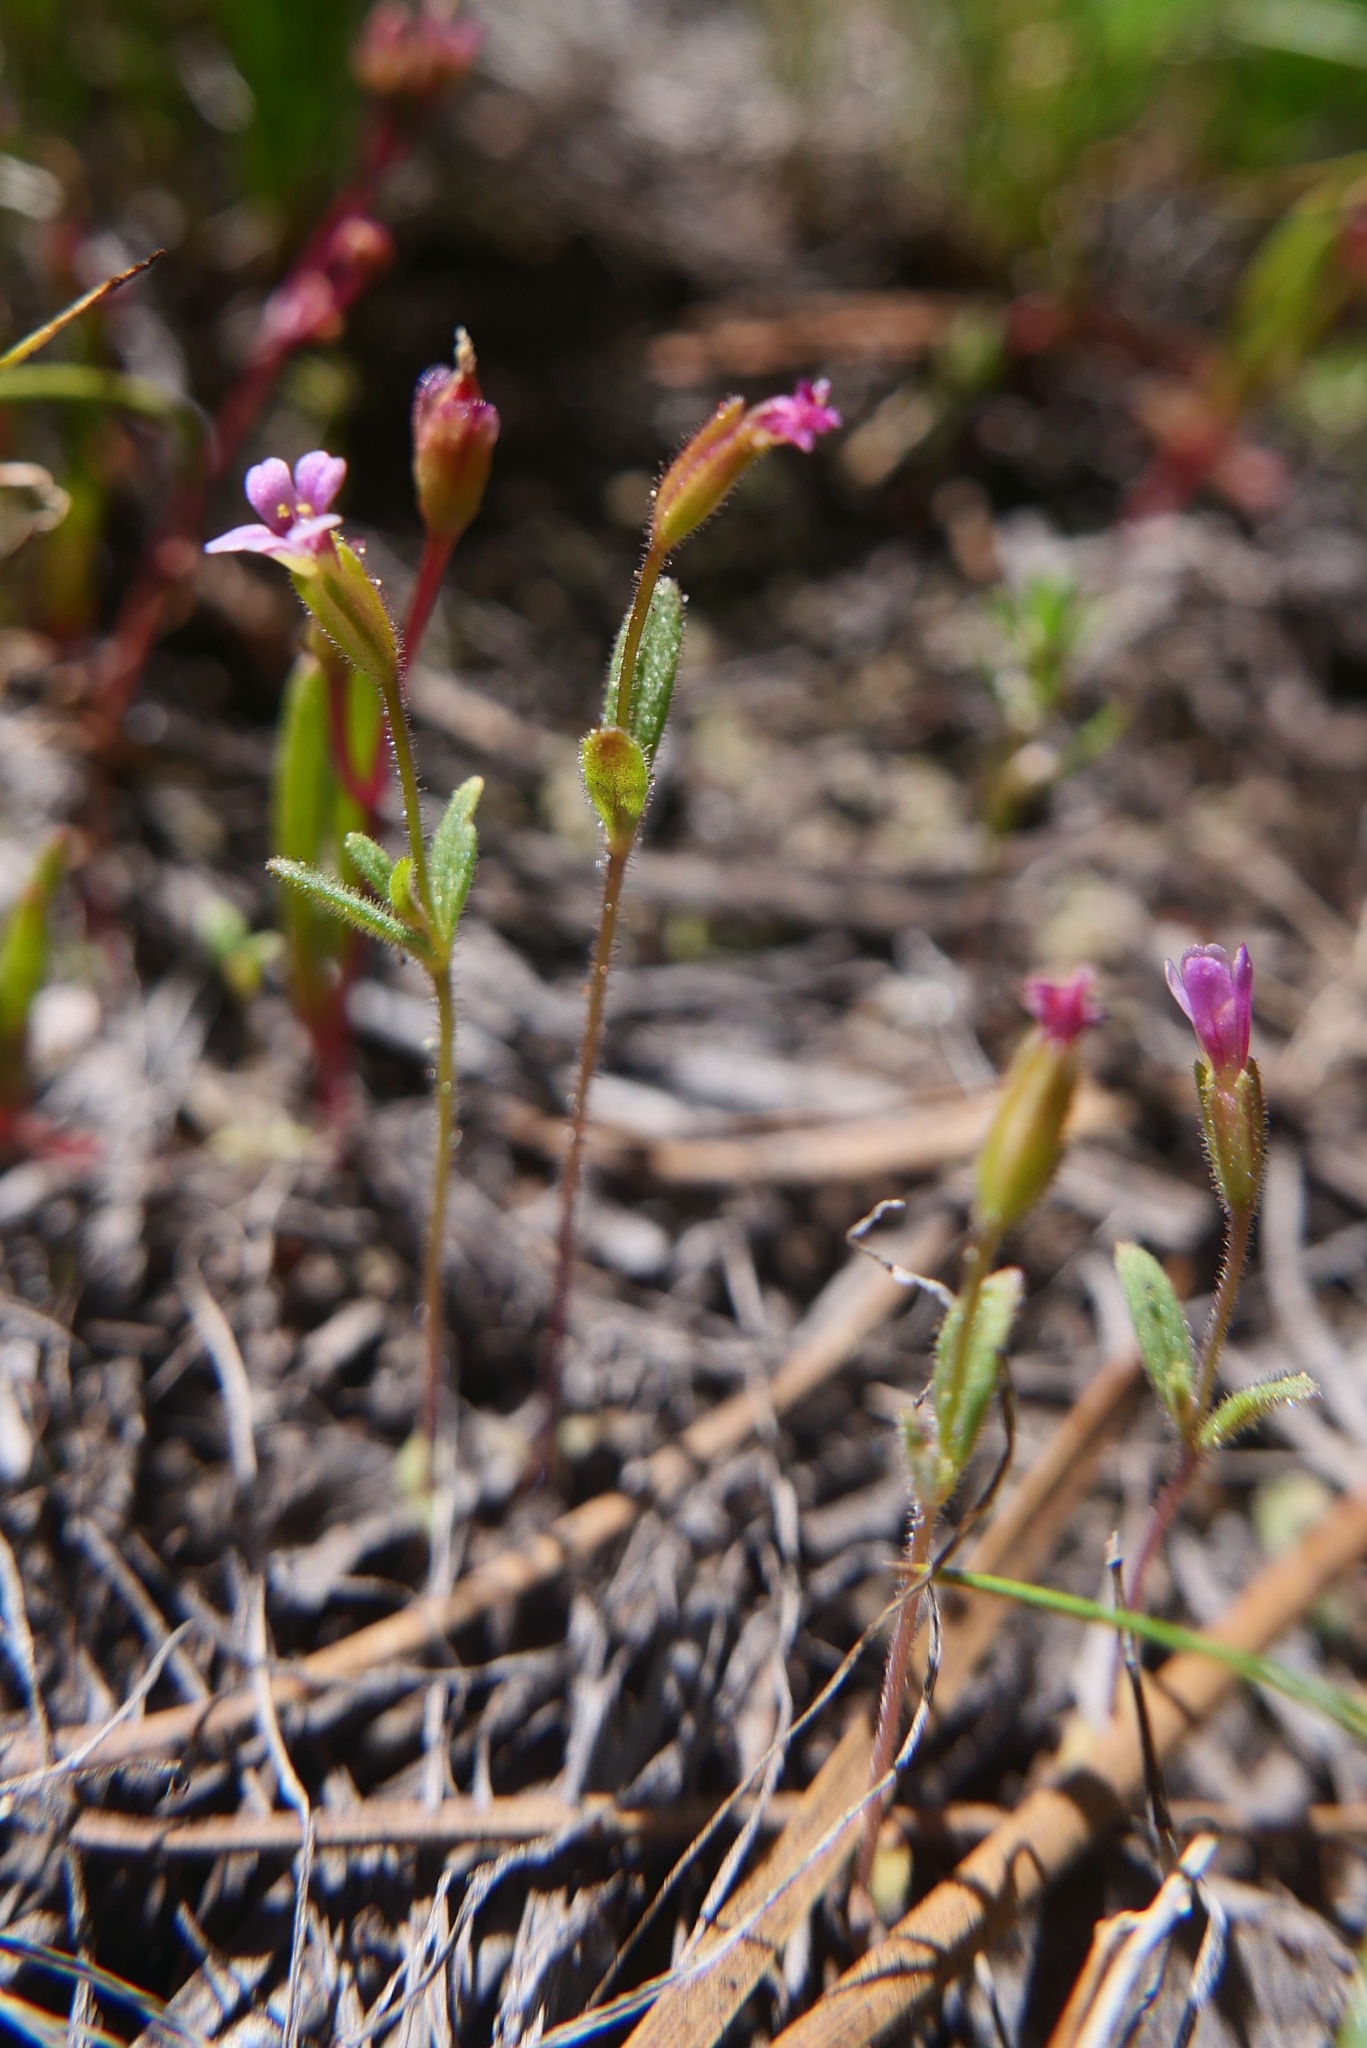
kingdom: Plantae
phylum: Tracheophyta
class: Magnoliopsida
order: Lamiales
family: Phrymaceae
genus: Erythranthe
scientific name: Erythranthe breweri
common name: Brewer's monkeyflower
